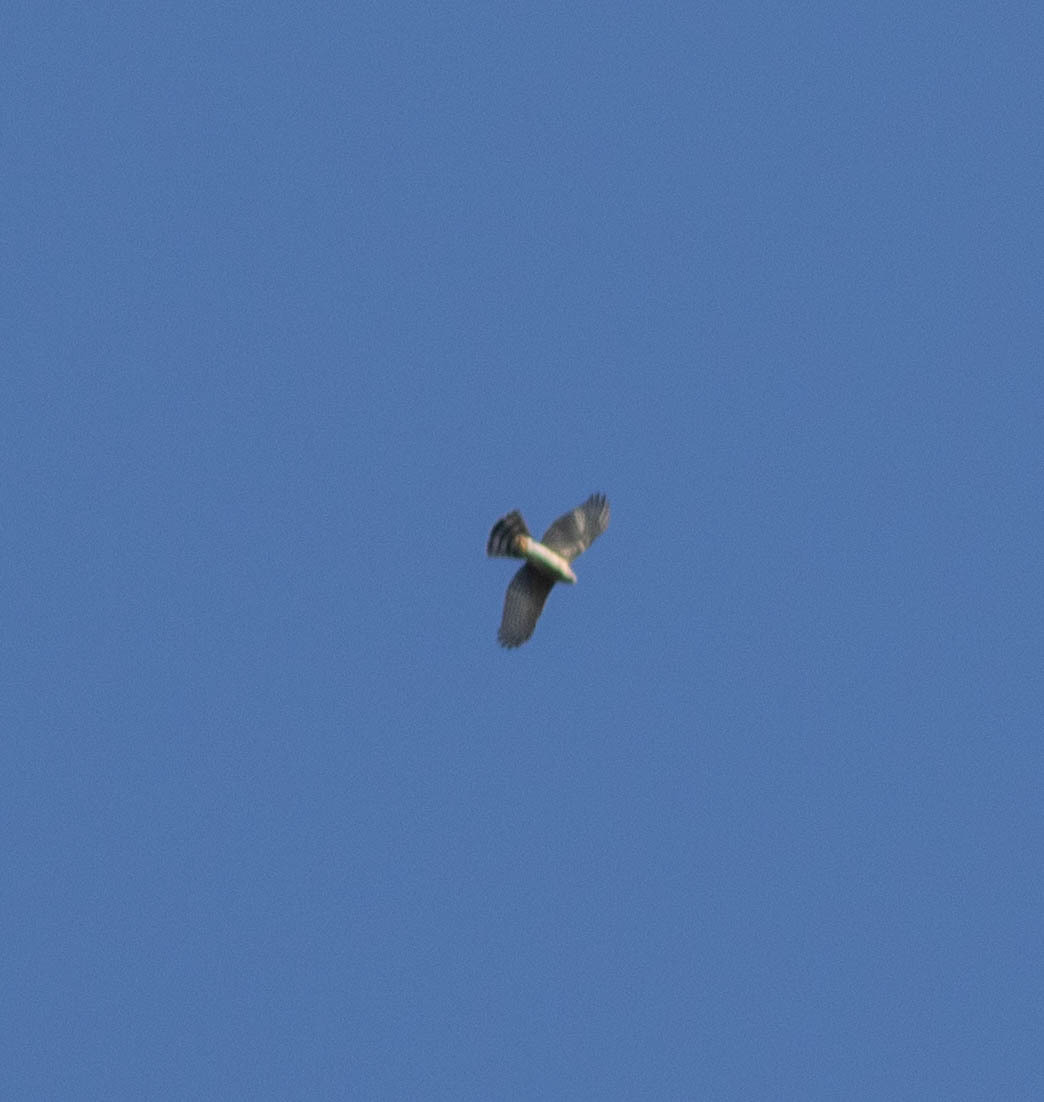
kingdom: Animalia
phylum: Chordata
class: Aves
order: Accipitriformes
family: Accipitridae
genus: Accipiter
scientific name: Accipiter cooperii
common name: Cooper's hawk
